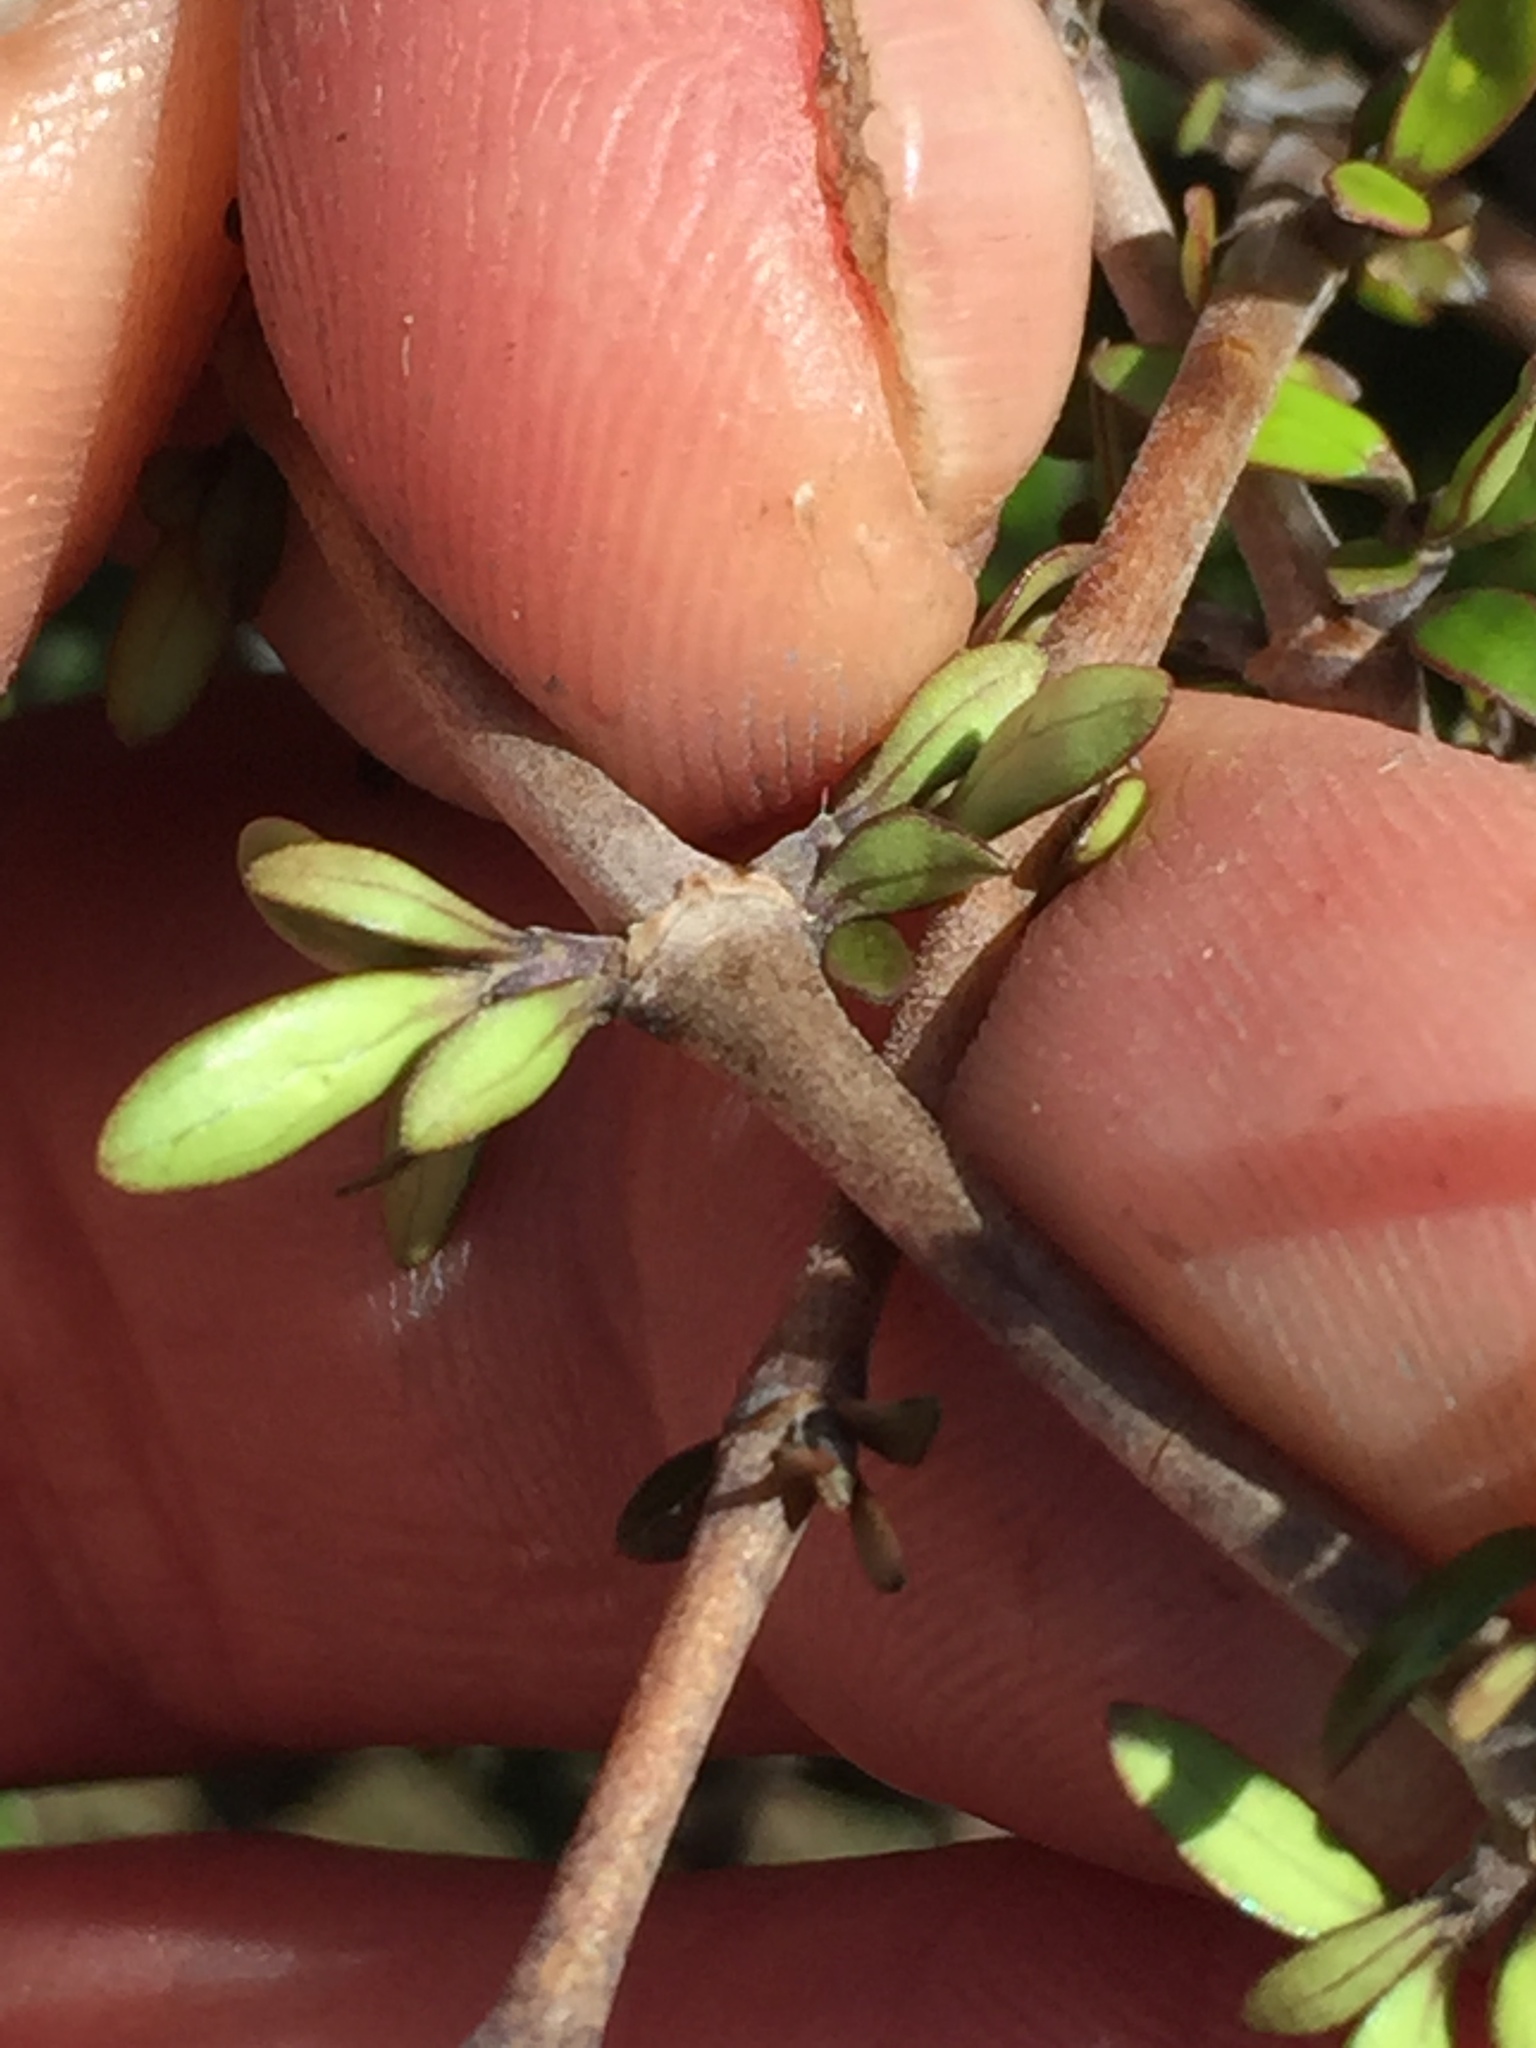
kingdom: Plantae
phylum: Tracheophyta
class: Magnoliopsida
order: Gentianales
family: Rubiaceae
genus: Coprosma
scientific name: Coprosma propinqua
